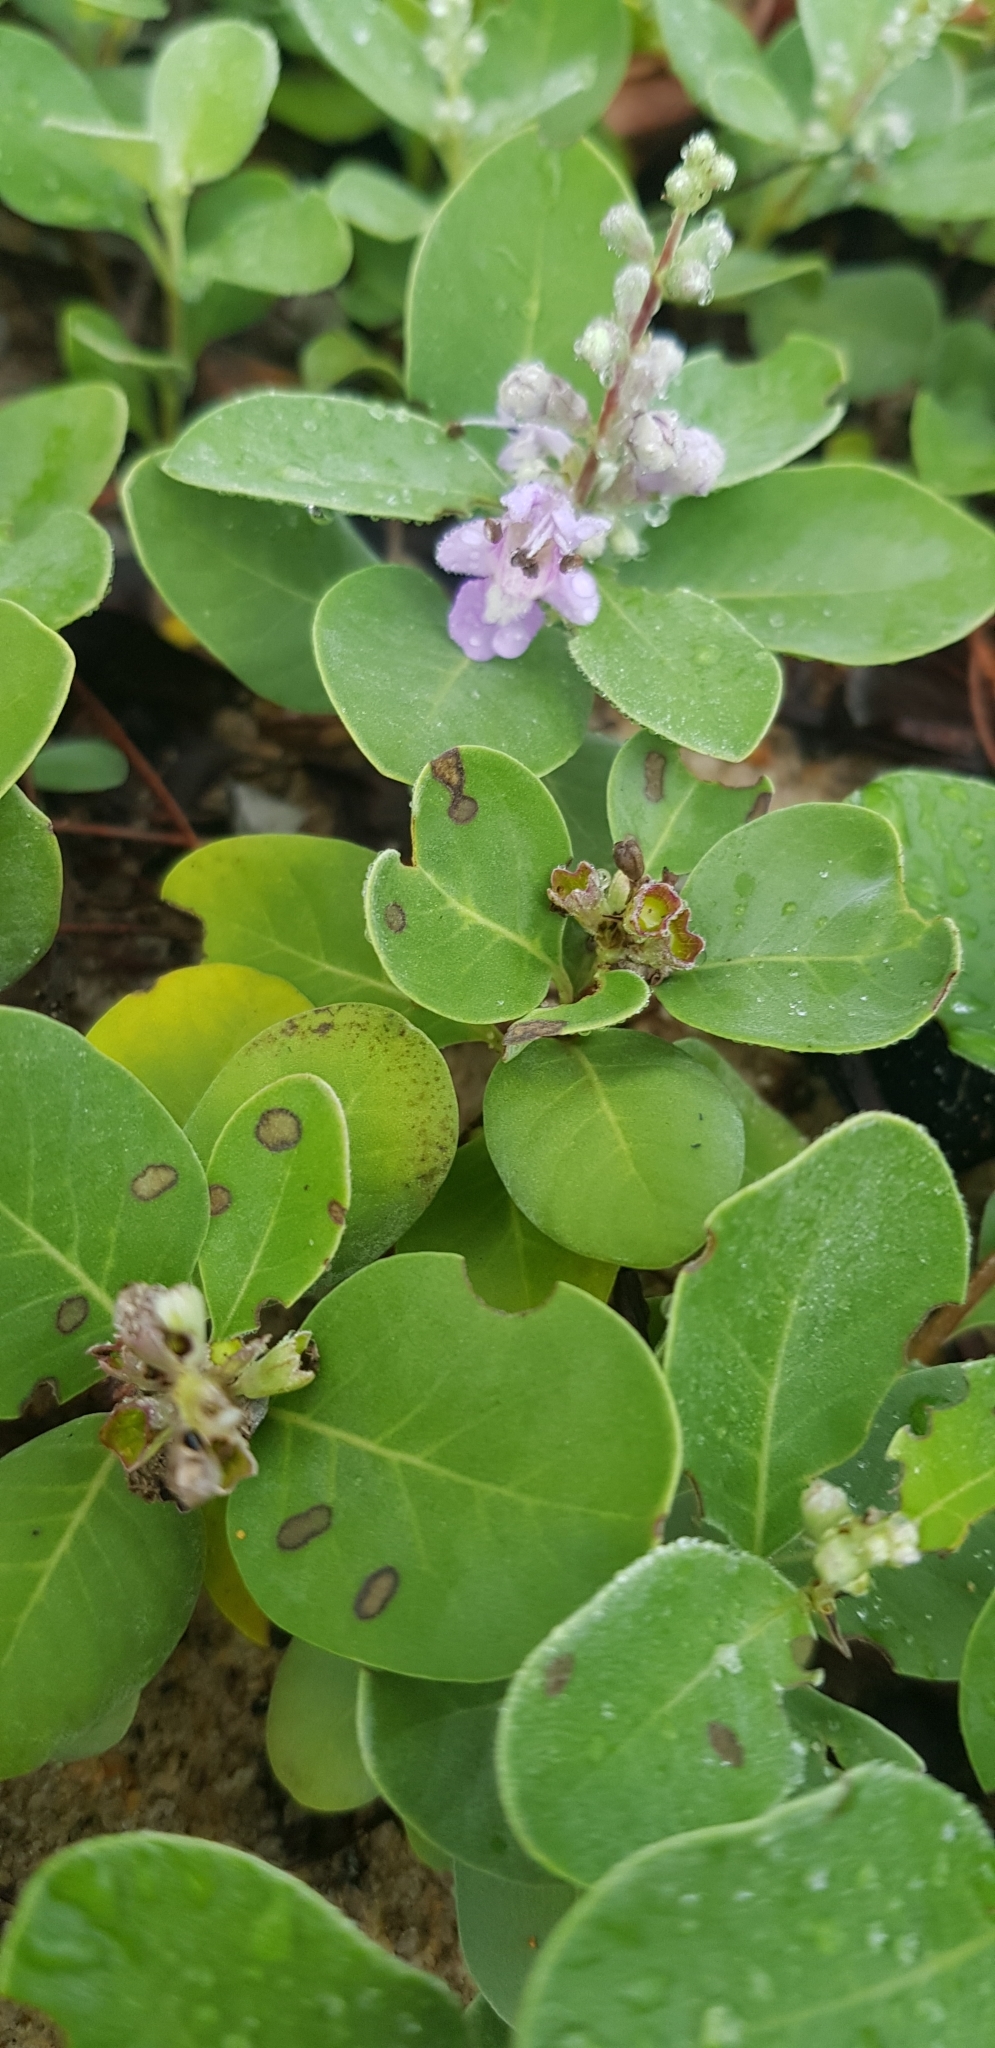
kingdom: Plantae
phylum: Tracheophyta
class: Magnoliopsida
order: Lamiales
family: Lamiaceae
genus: Vitex
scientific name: Vitex rotundifolia
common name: Beach vitex
